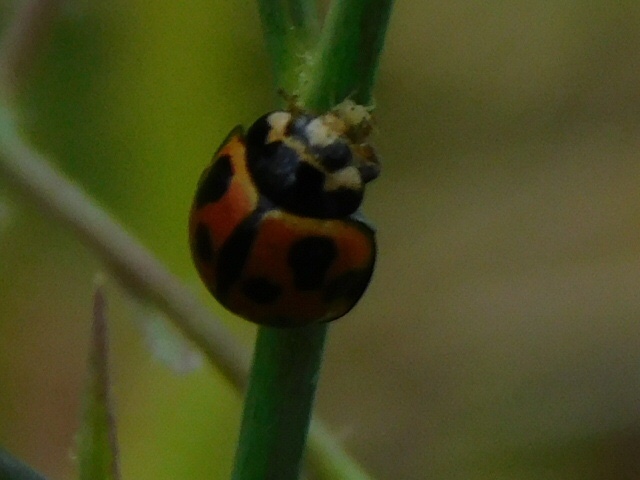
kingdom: Animalia
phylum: Arthropoda
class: Insecta
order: Coleoptera
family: Coccinellidae
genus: Coelophora
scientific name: Coelophora inaequalis
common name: Common australian lady beetle
